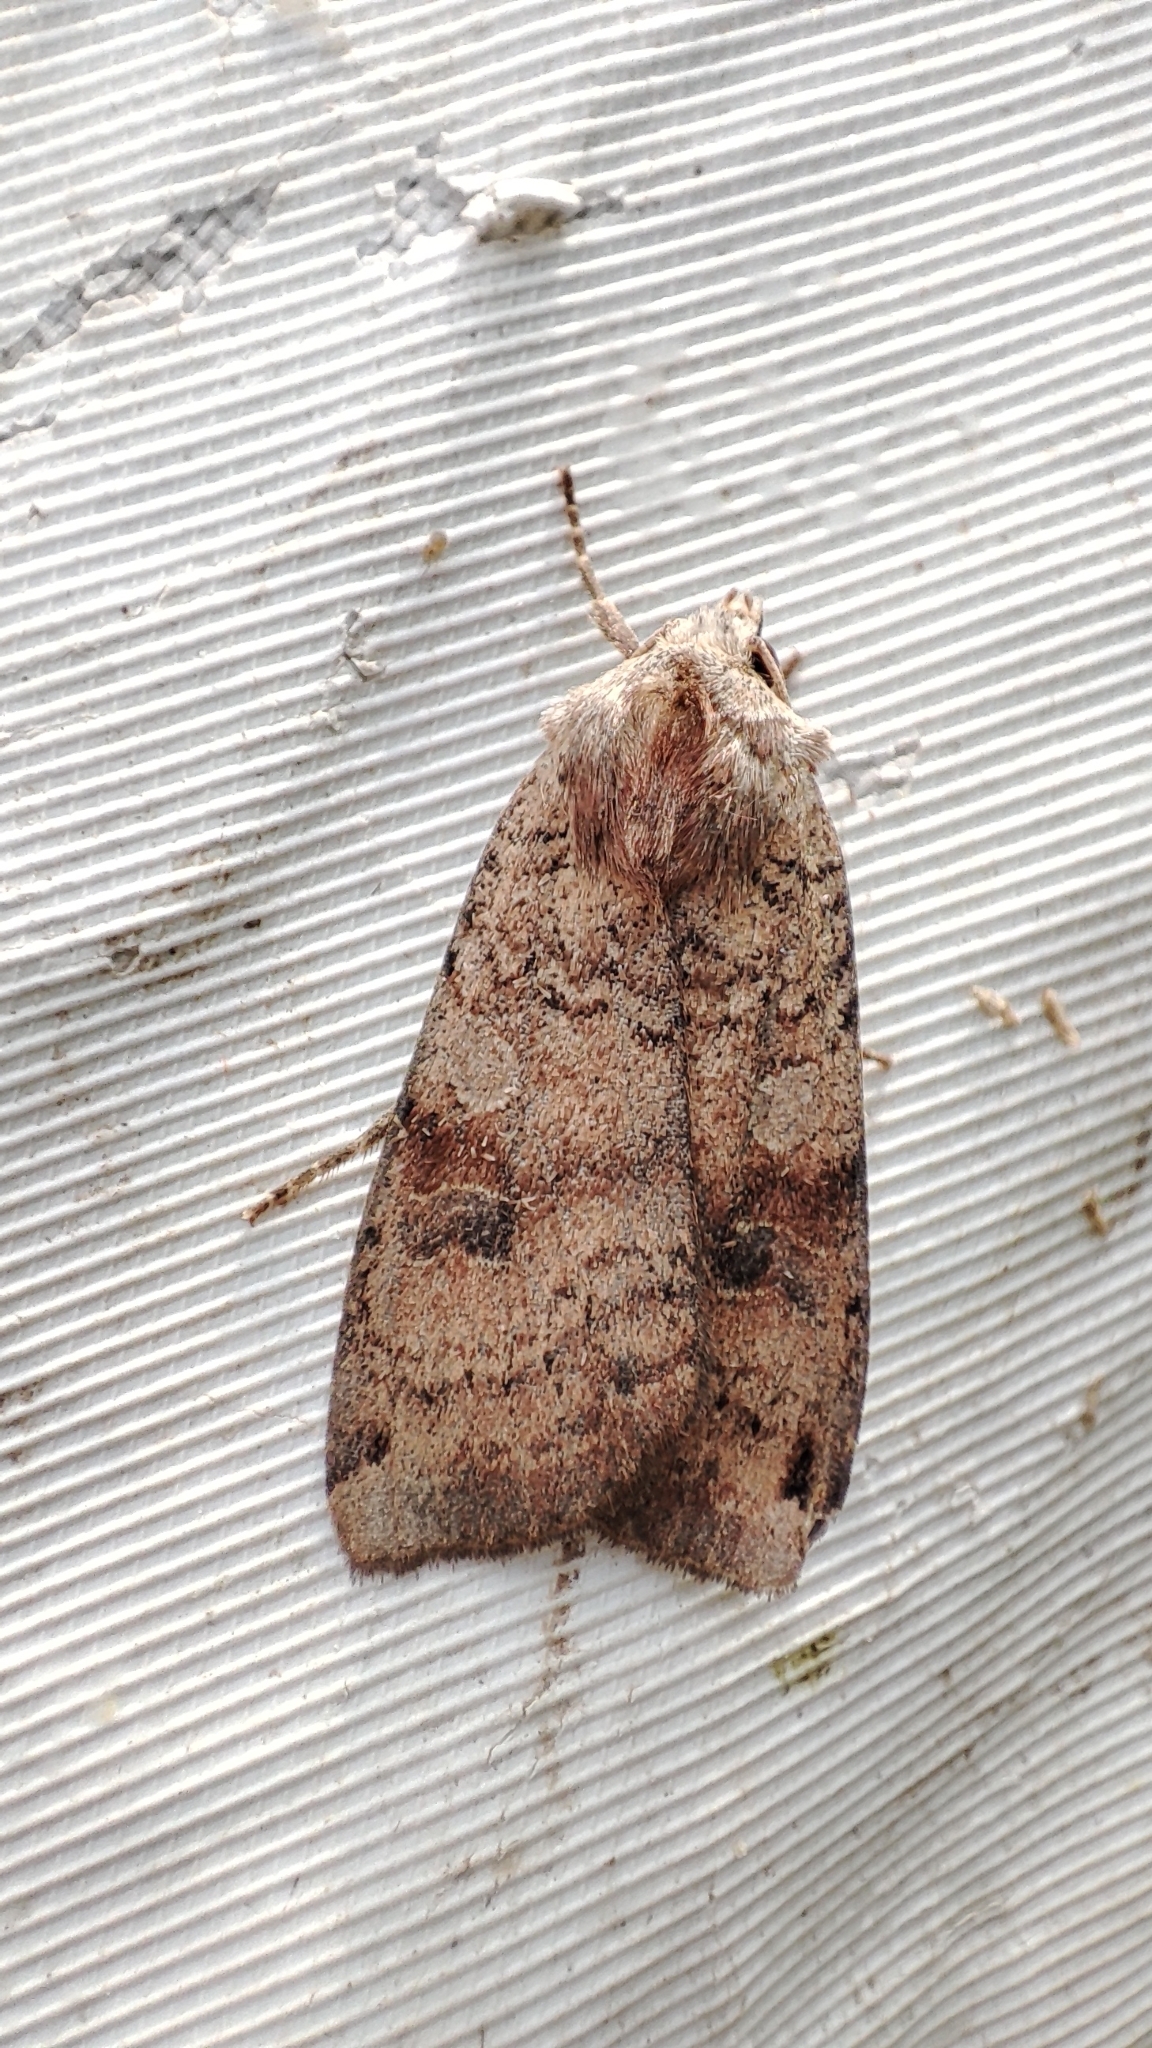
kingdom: Animalia
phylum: Arthropoda
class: Insecta
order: Lepidoptera
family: Noctuidae
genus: Xestia
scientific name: Xestia baja
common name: Dotted clay
